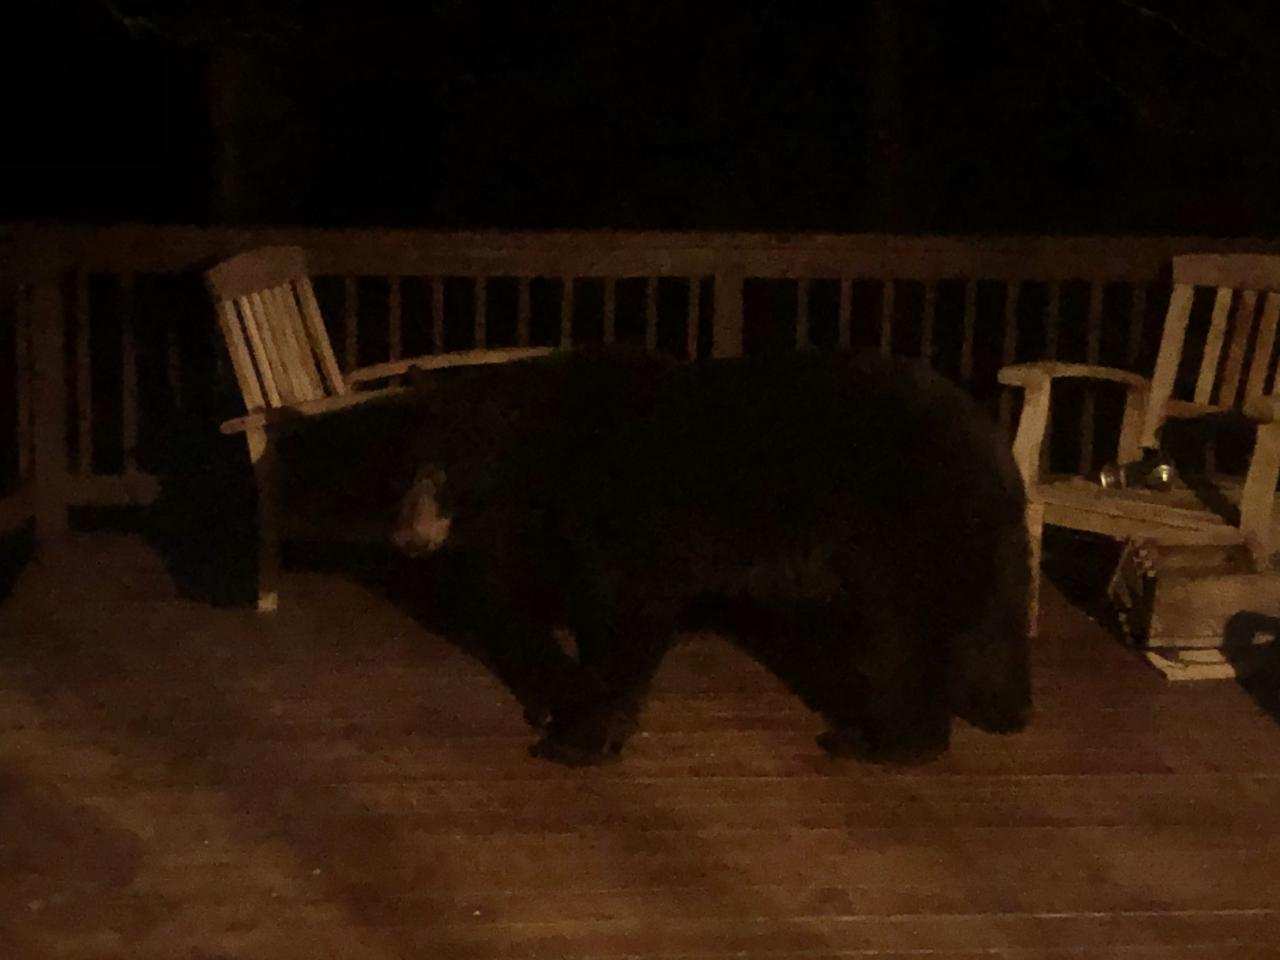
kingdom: Animalia
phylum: Chordata
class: Mammalia
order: Carnivora
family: Ursidae
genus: Ursus
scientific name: Ursus americanus
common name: American black bear
